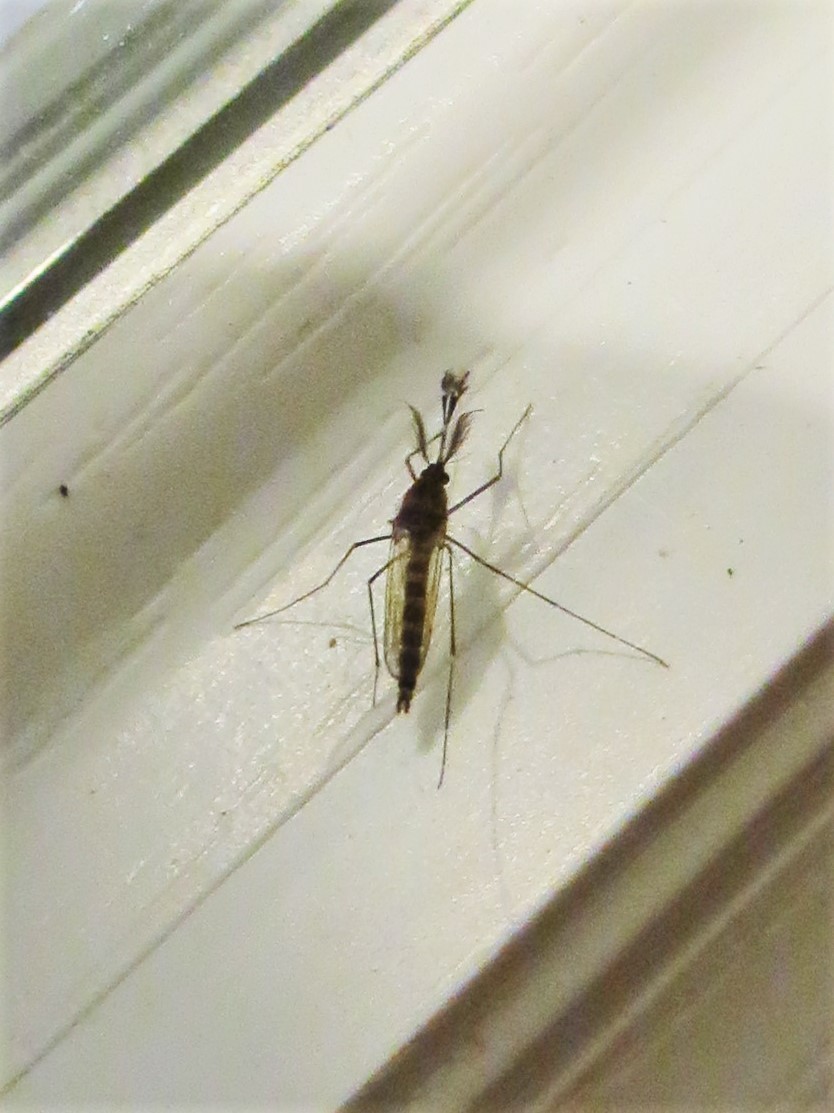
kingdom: Animalia
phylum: Arthropoda
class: Insecta
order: Diptera
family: Culicidae
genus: Aedes
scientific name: Aedes vexans
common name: Inland floodwater mosquito
